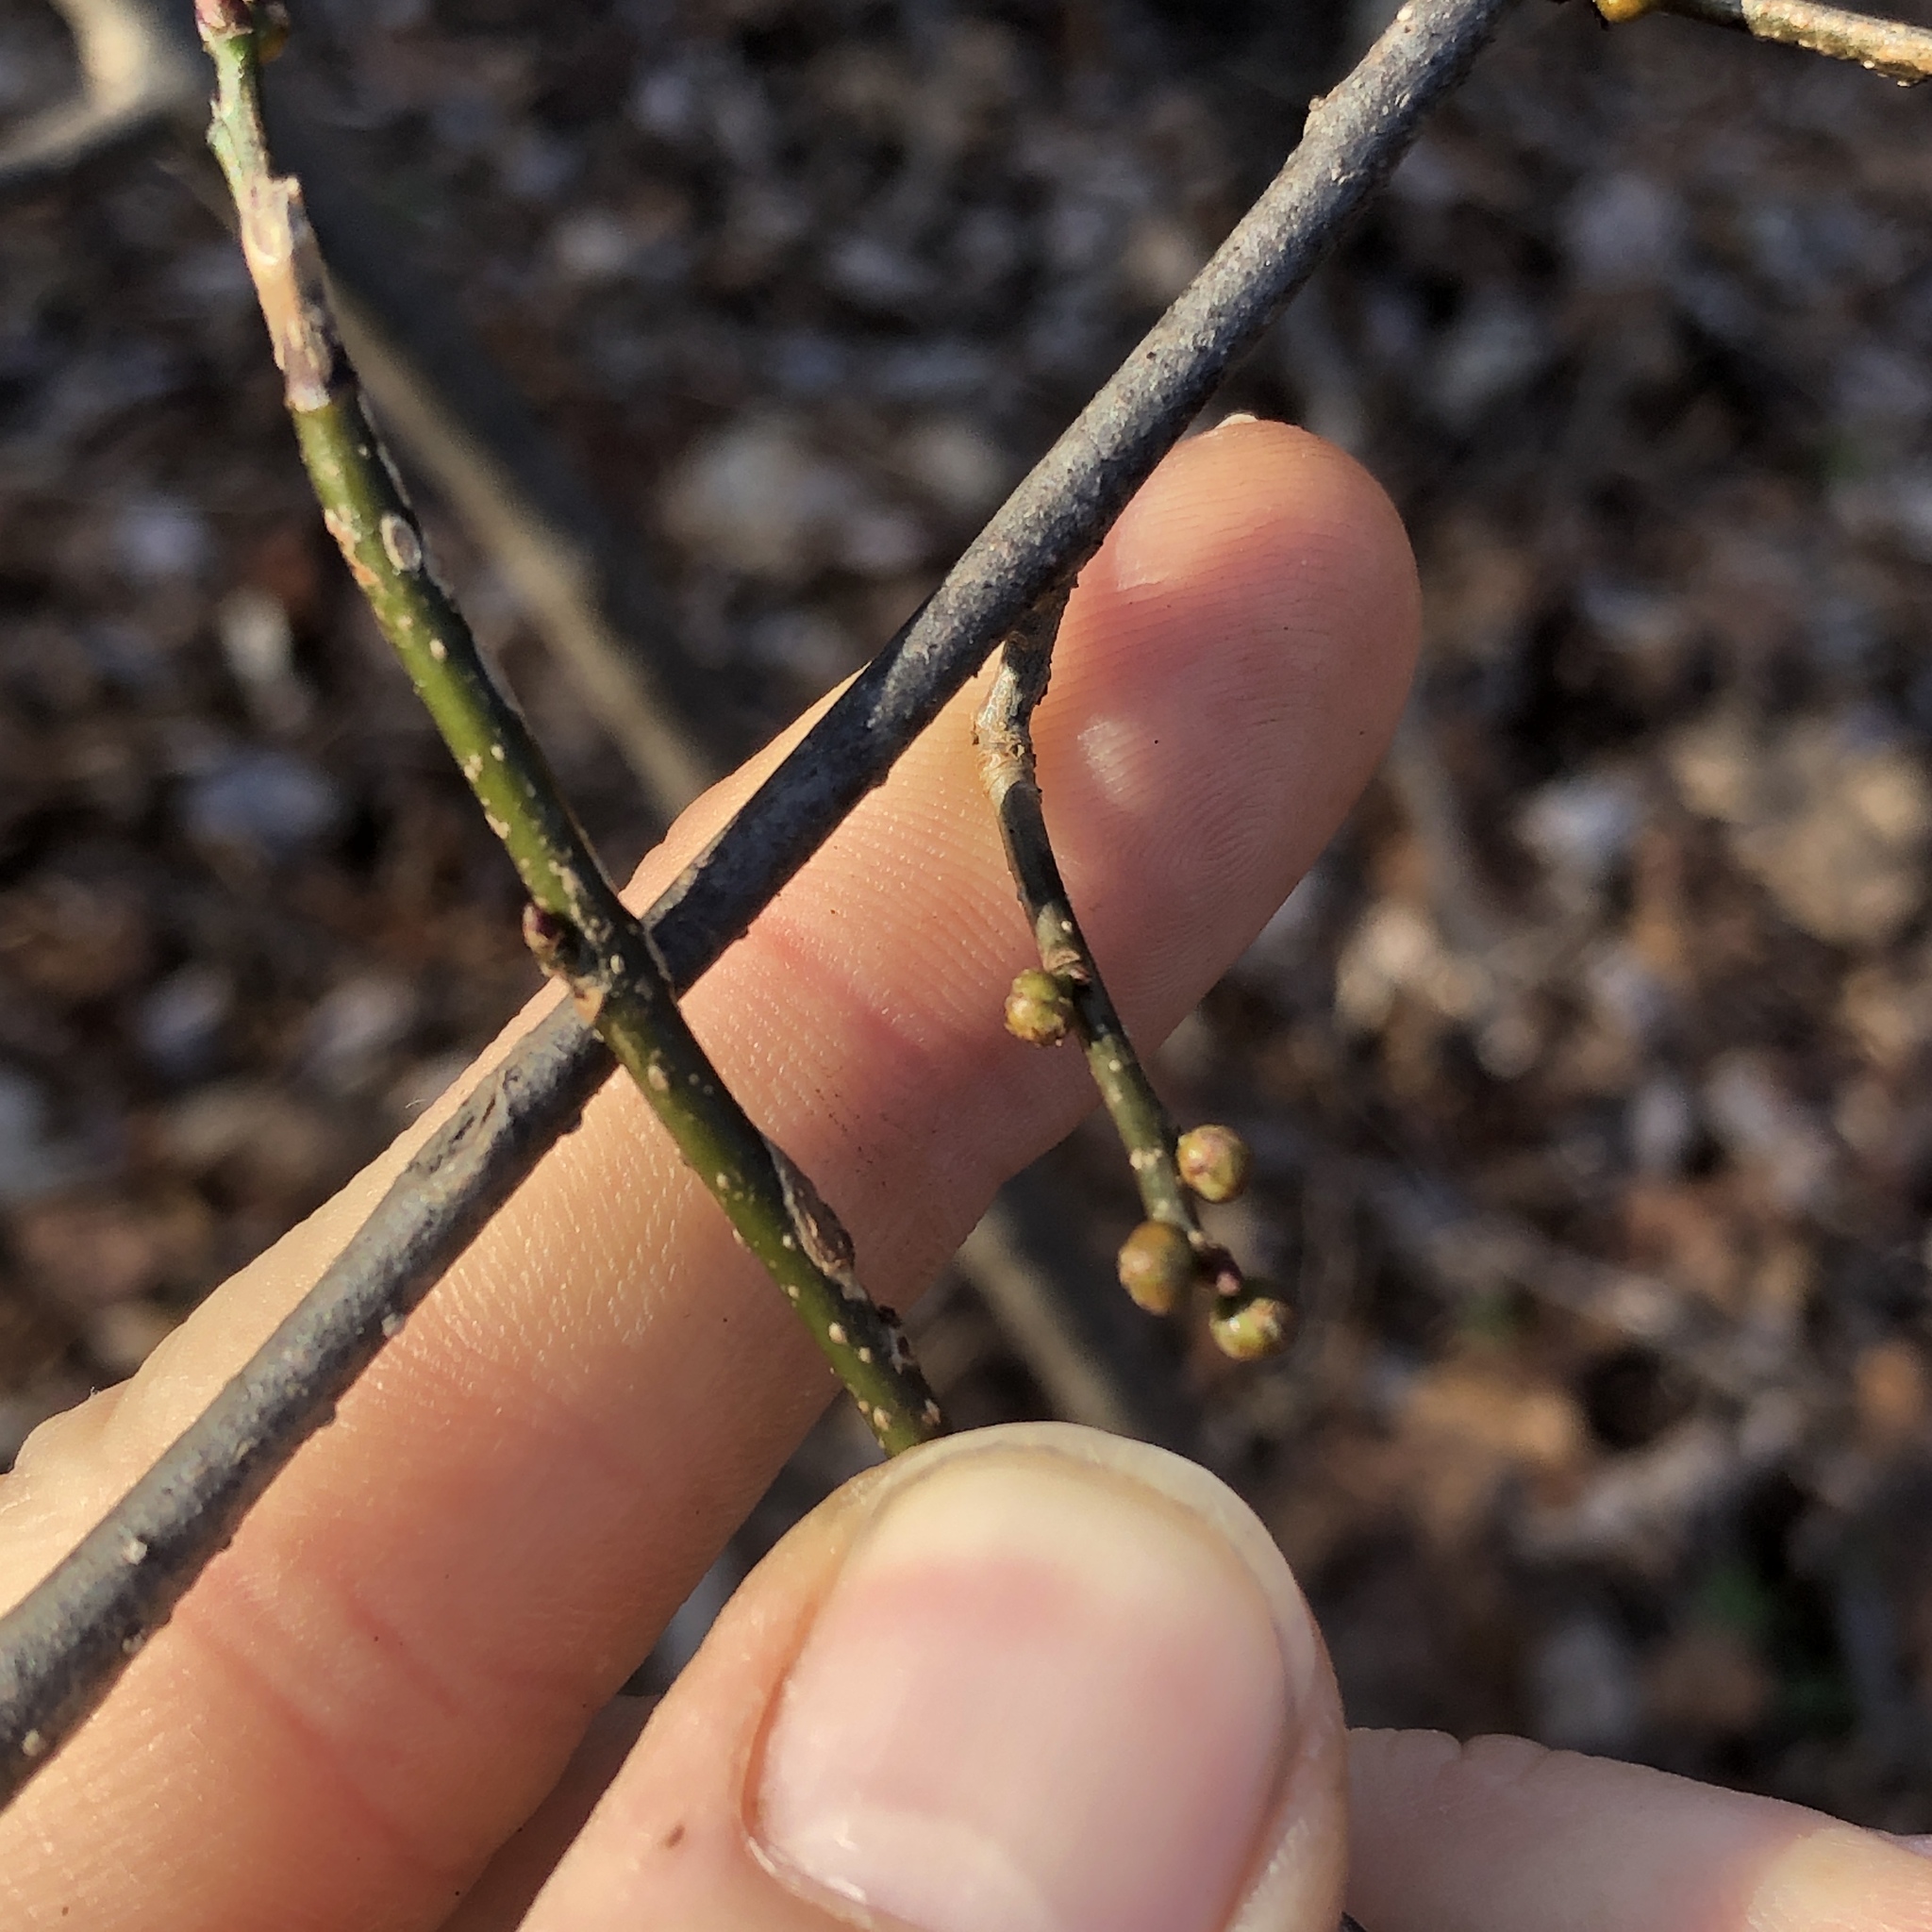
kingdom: Plantae
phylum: Tracheophyta
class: Magnoliopsida
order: Laurales
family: Lauraceae
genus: Lindera
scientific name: Lindera benzoin
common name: Spicebush
